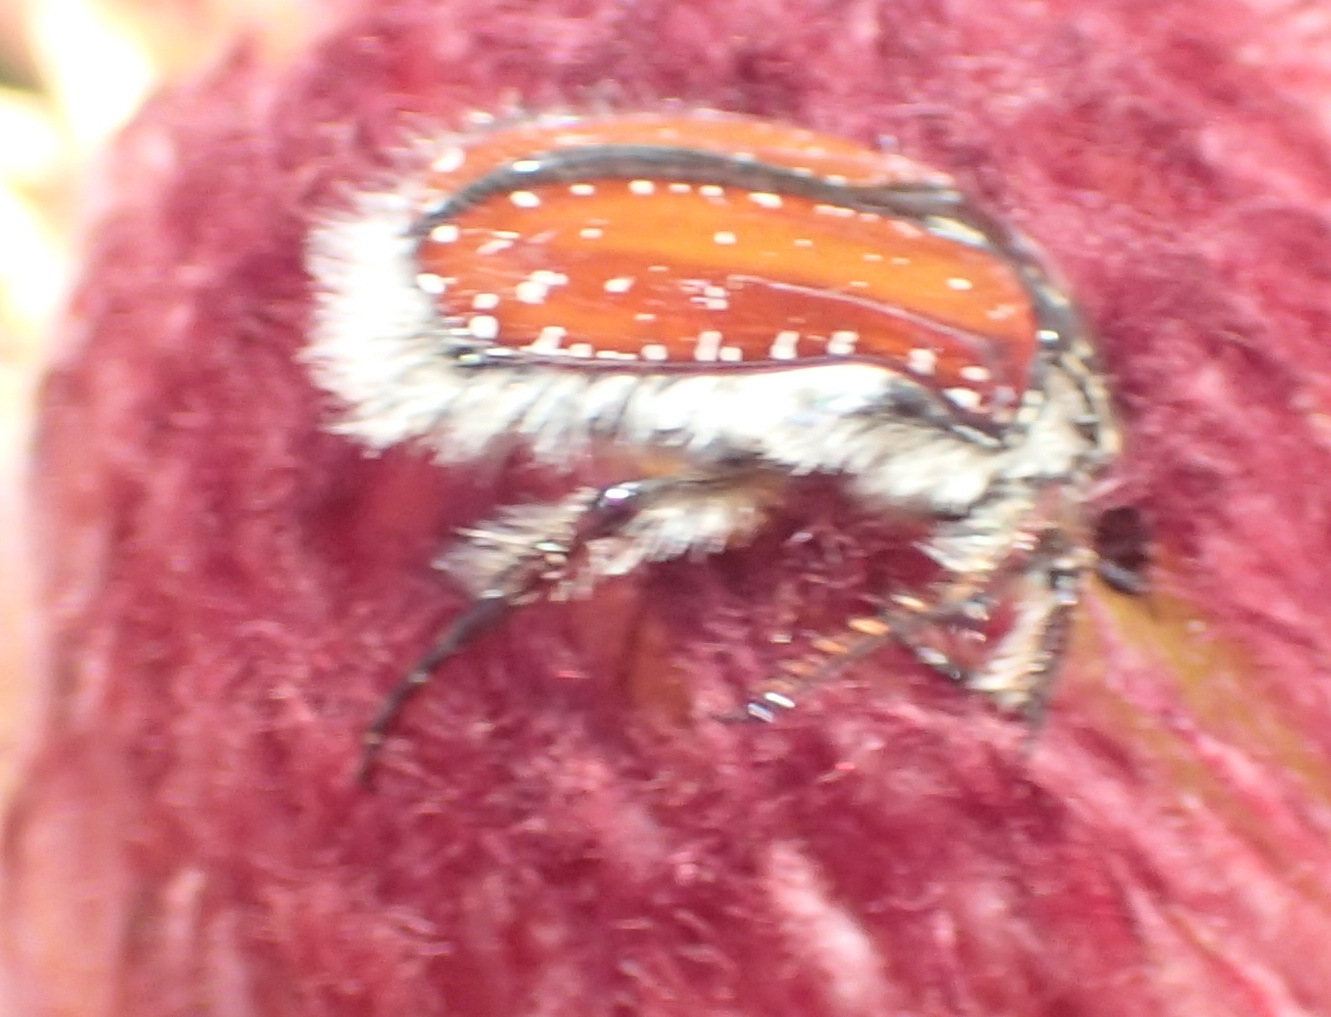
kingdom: Animalia
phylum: Arthropoda
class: Insecta
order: Coleoptera
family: Scarabaeidae
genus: Trichostetha
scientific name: Trichostetha capensis
